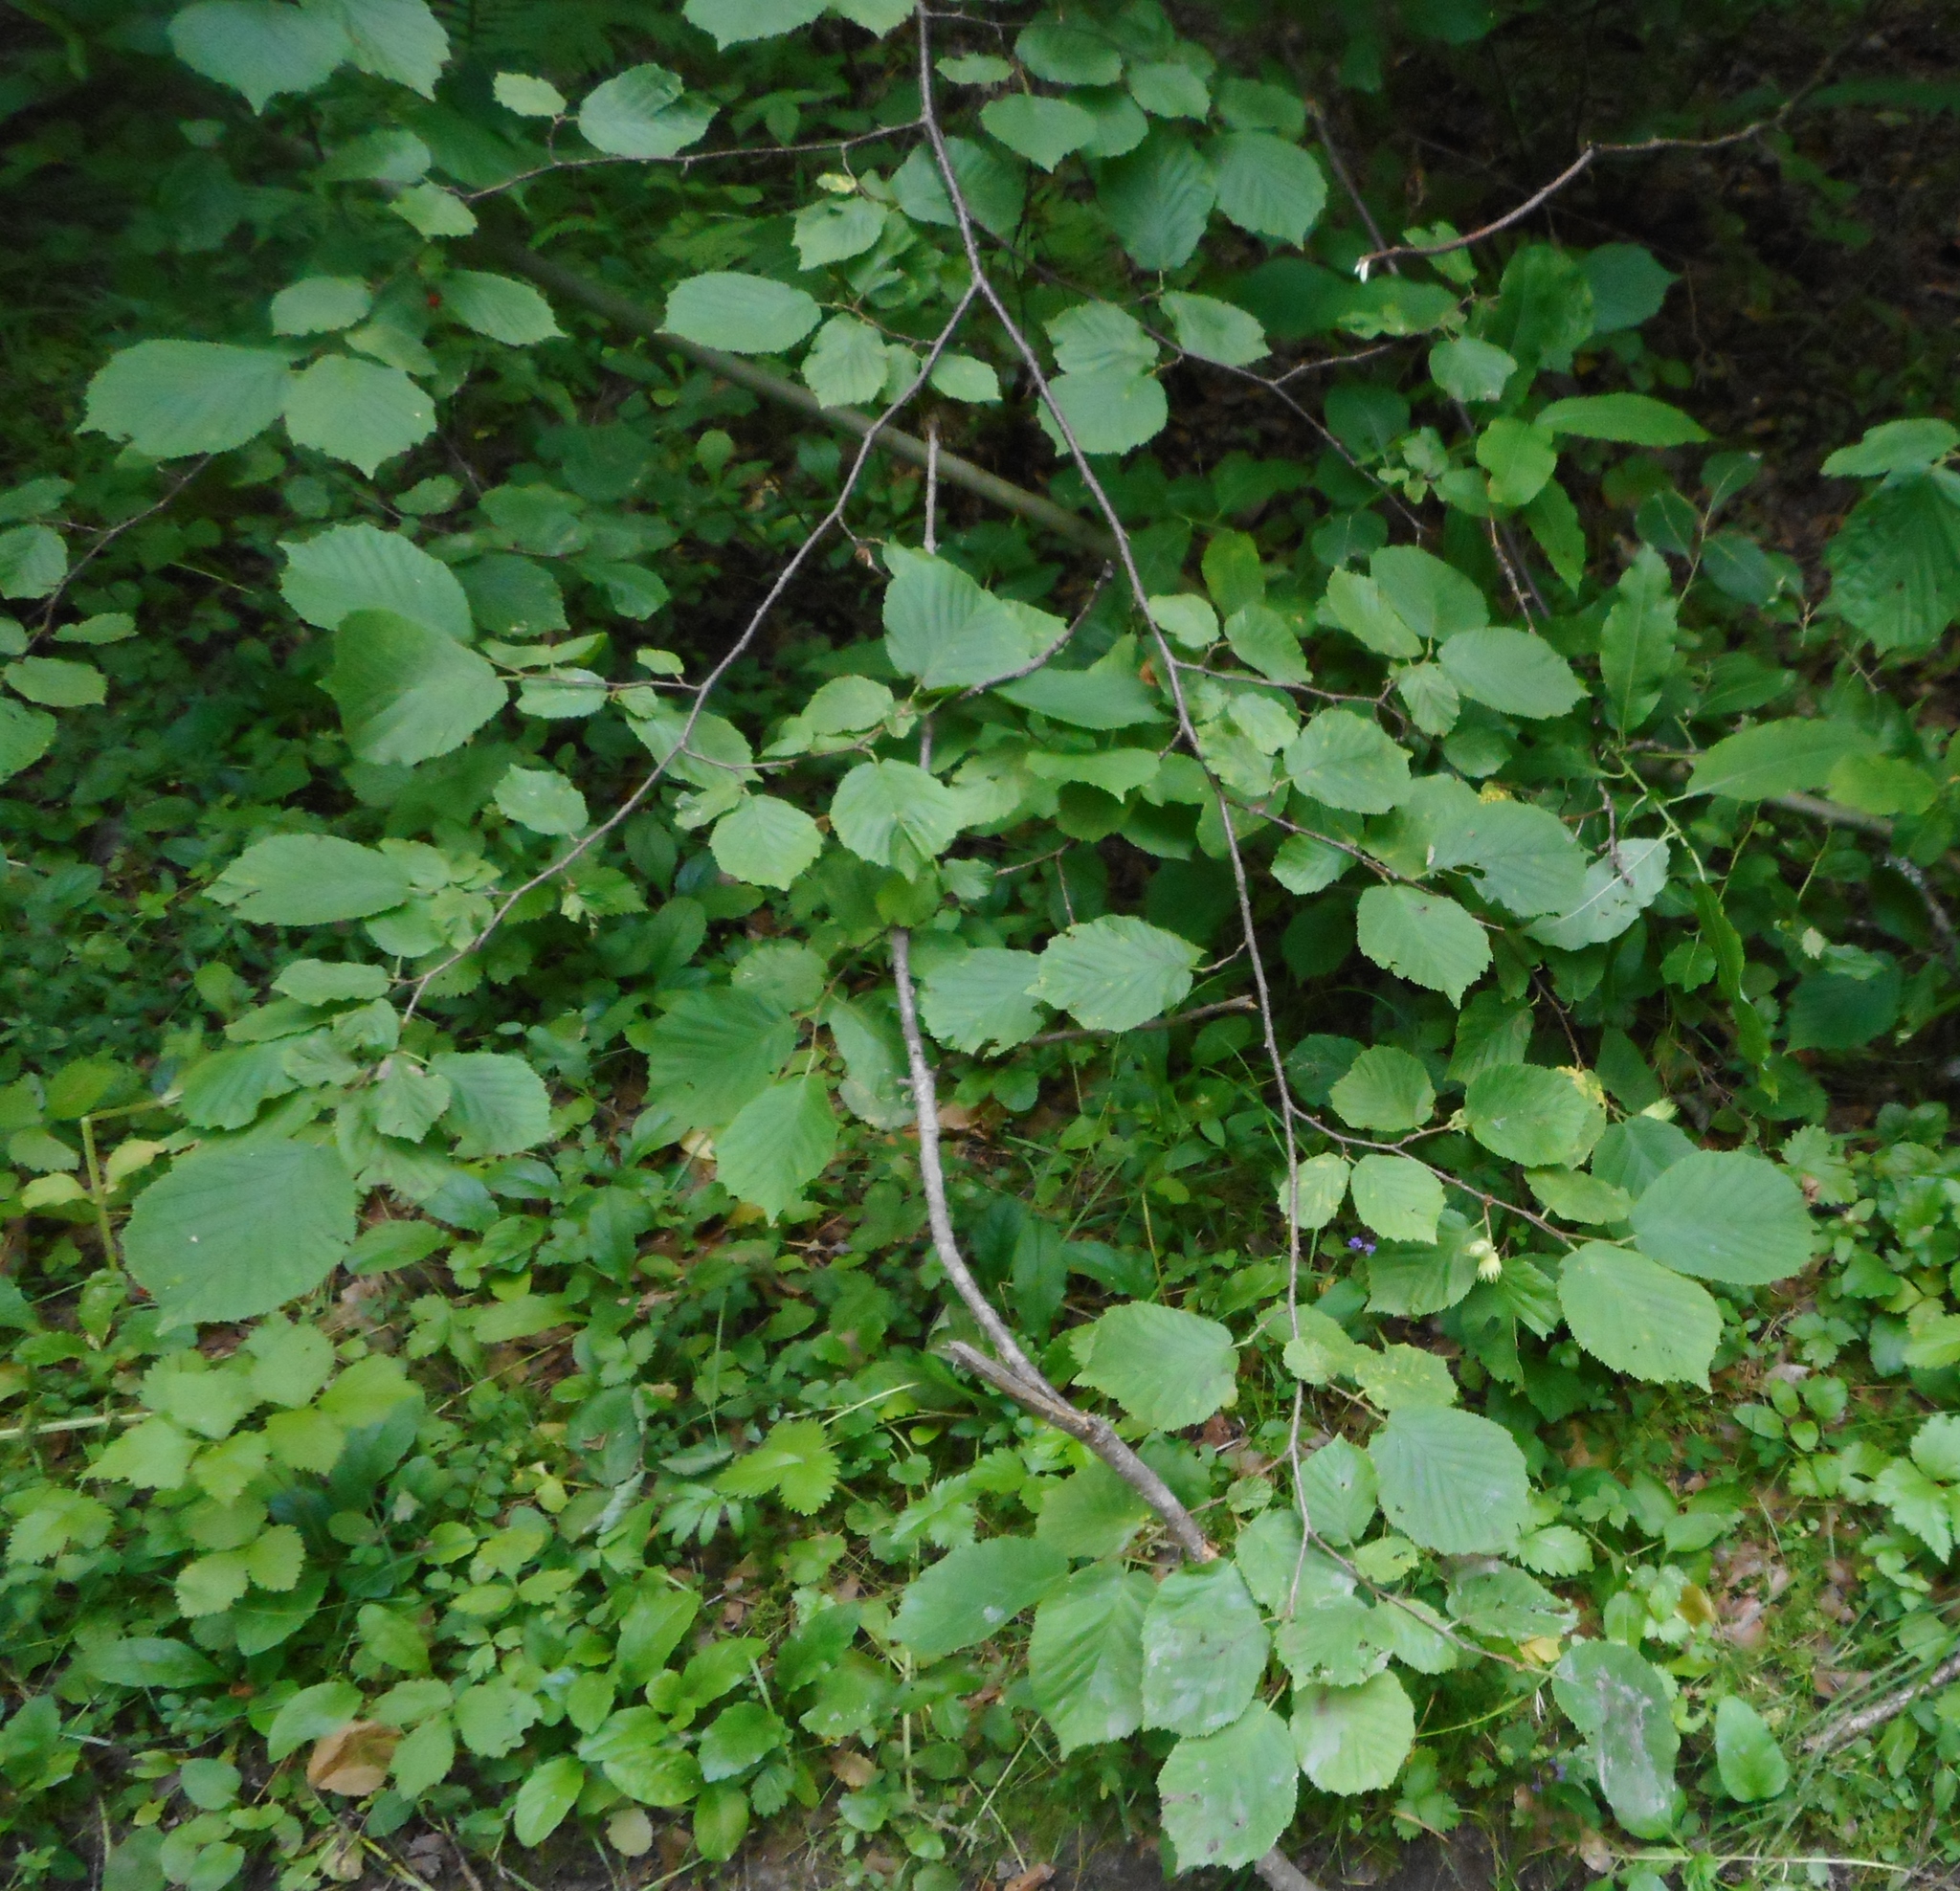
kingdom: Plantae
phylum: Tracheophyta
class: Magnoliopsida
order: Fagales
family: Betulaceae
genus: Corylus
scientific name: Corylus avellana
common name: European hazel
